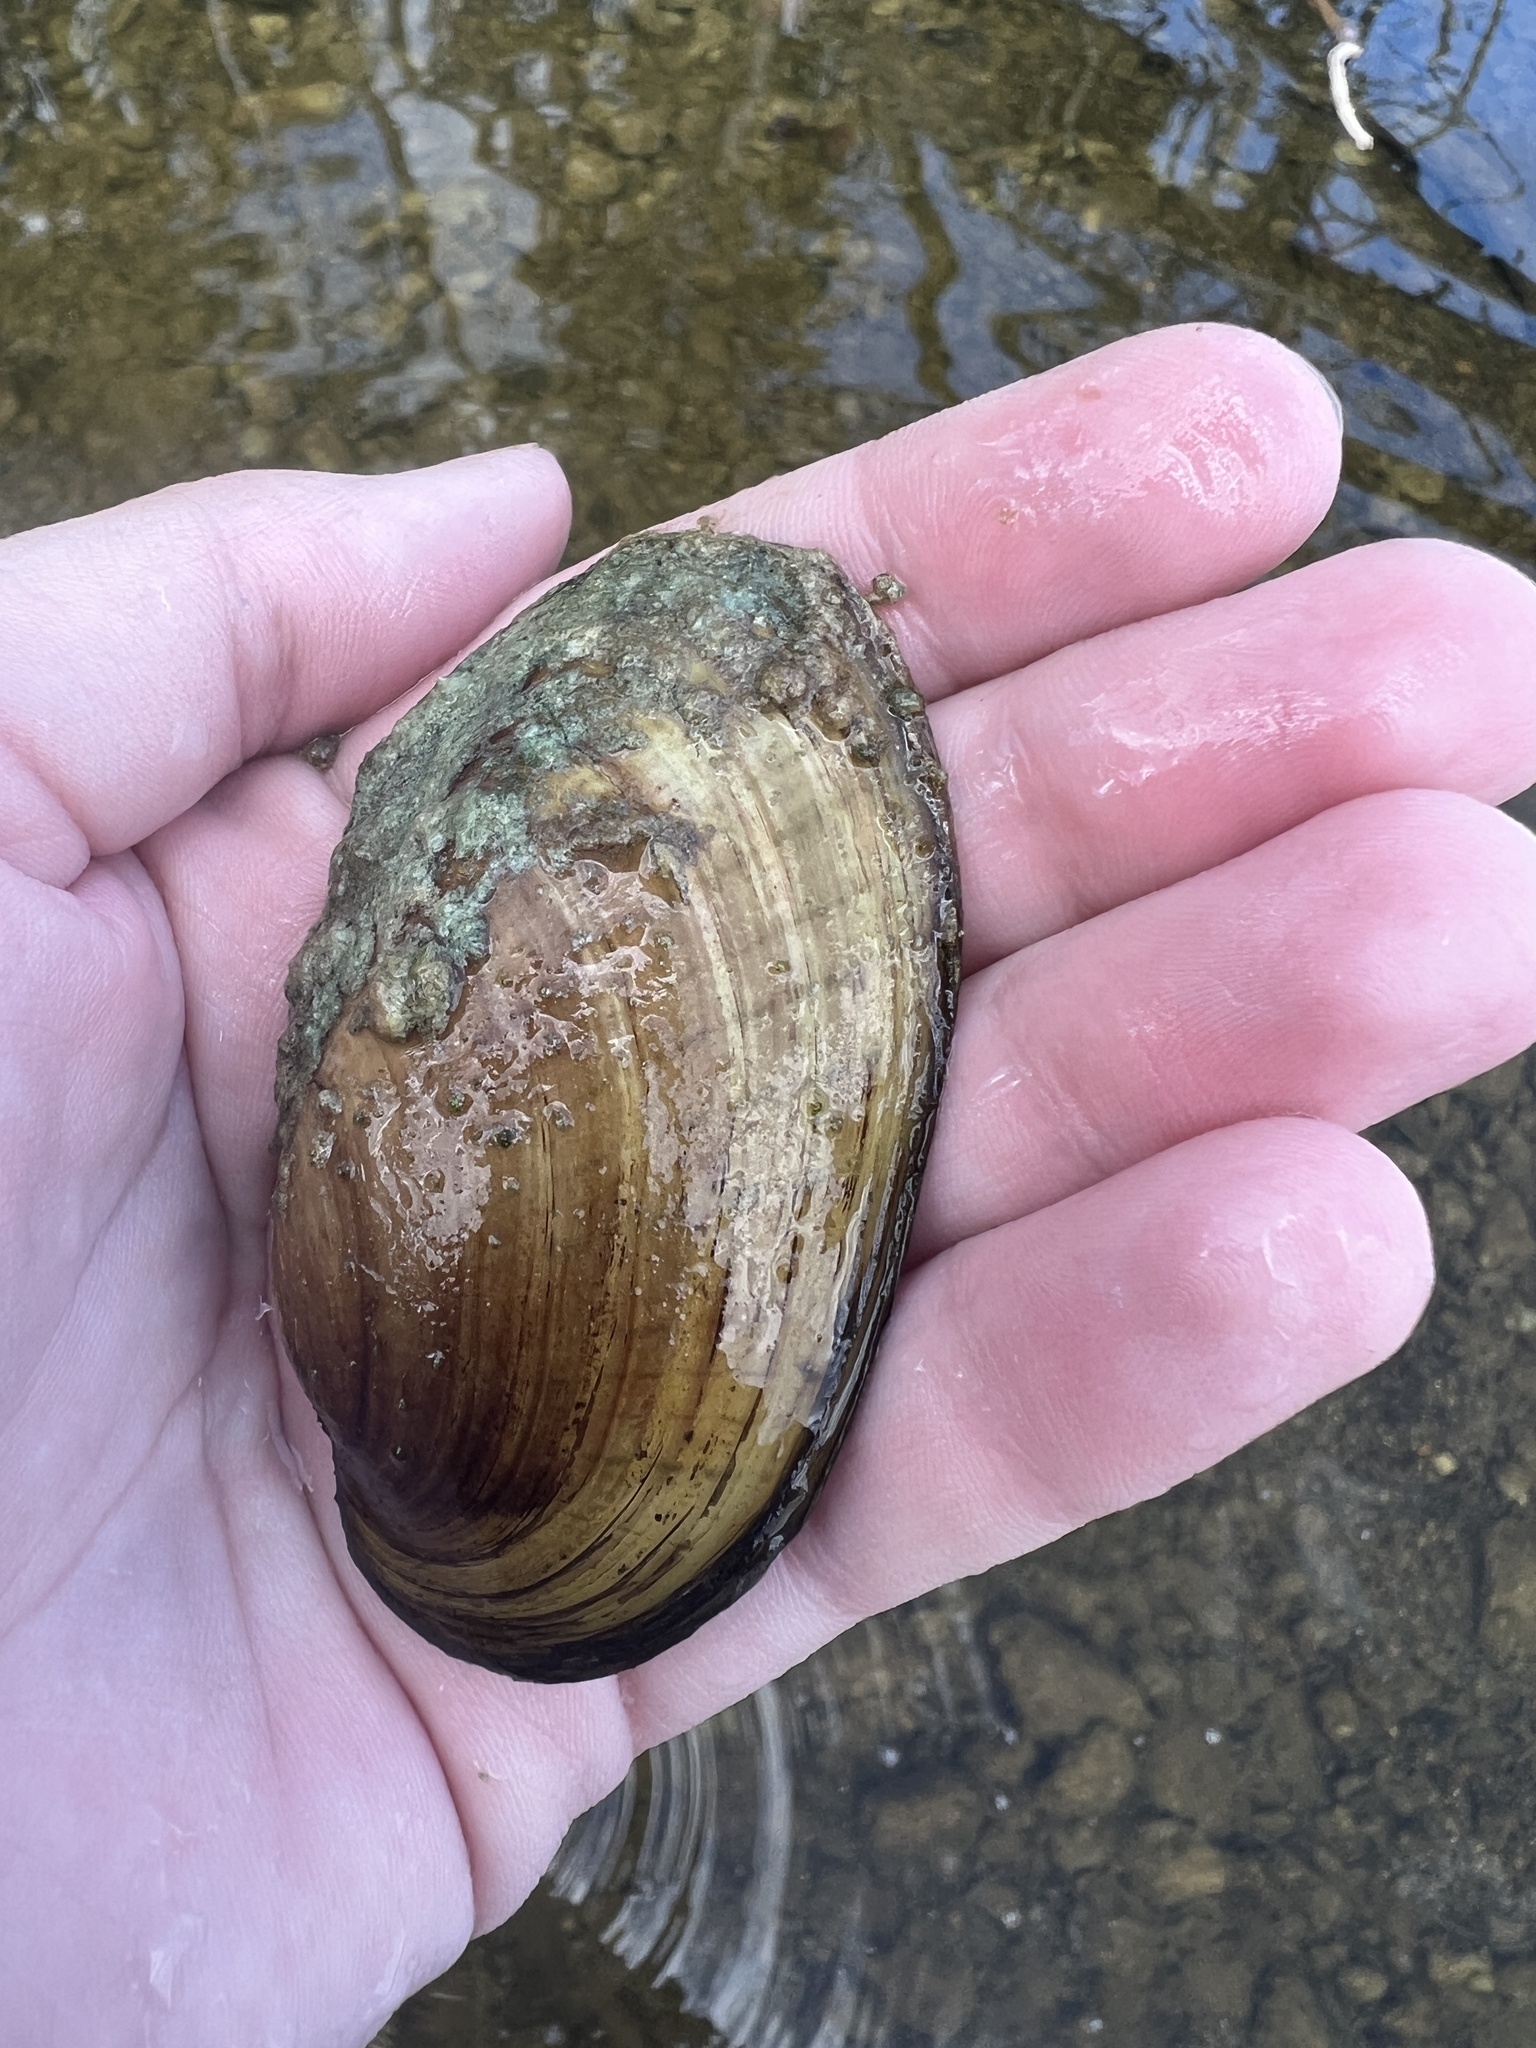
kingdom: Animalia
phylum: Mollusca
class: Bivalvia
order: Unionida
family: Unionidae
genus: Lampsilis
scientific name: Lampsilis siliquoidea
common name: Fatmucket
